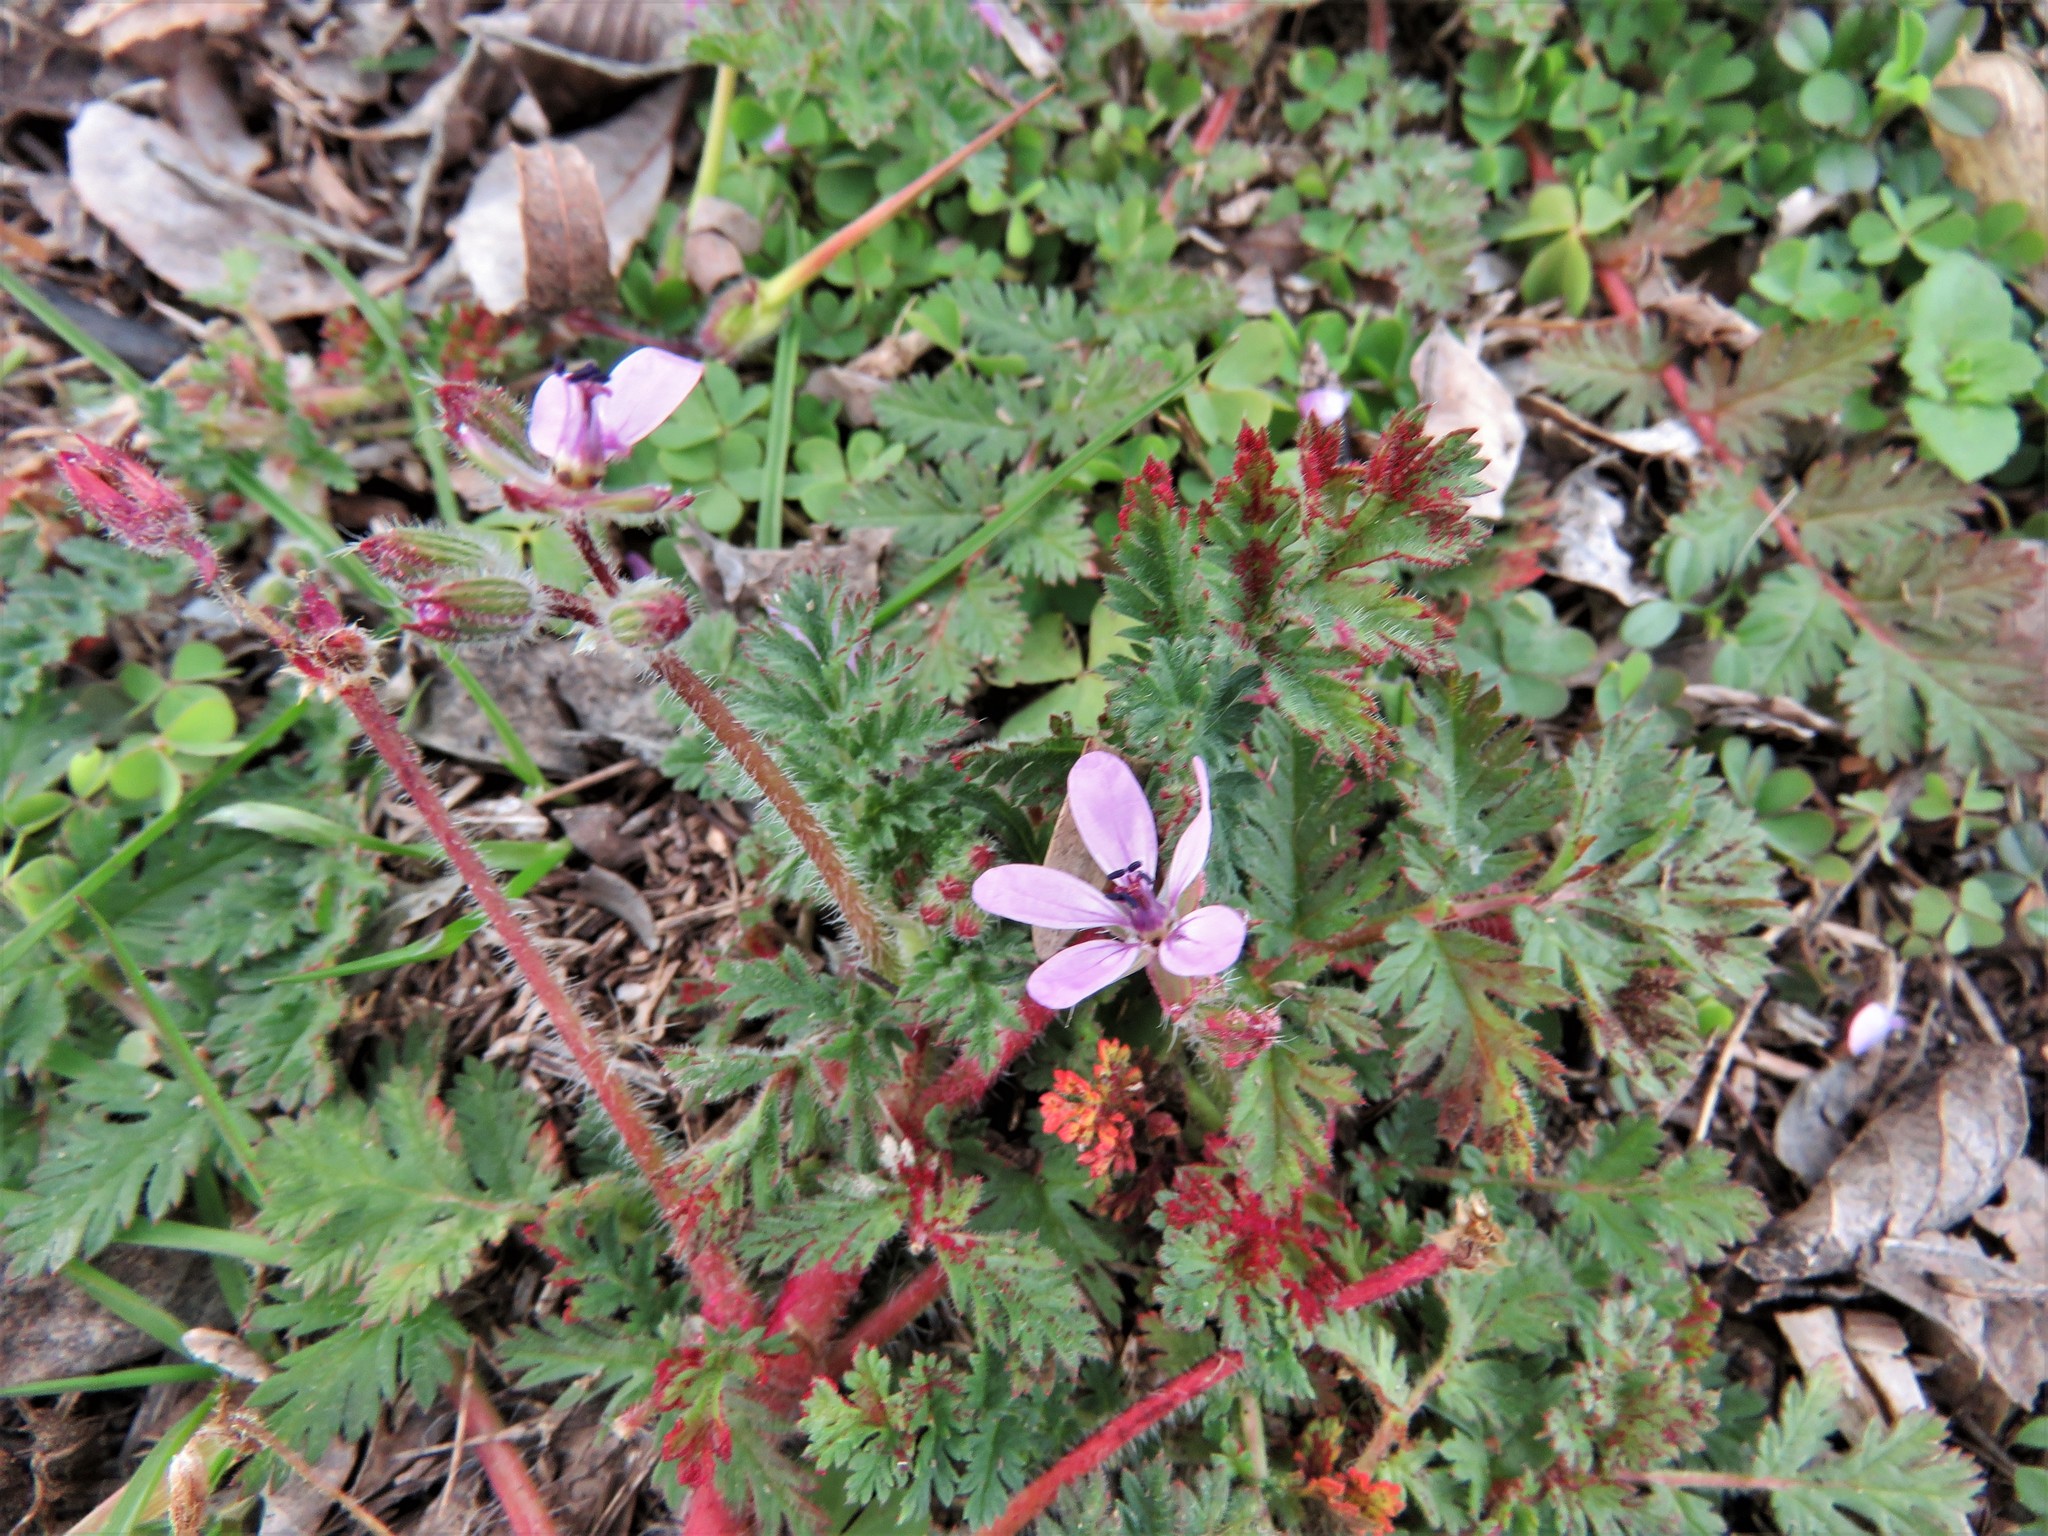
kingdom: Plantae
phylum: Tracheophyta
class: Magnoliopsida
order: Geraniales
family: Geraniaceae
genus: Erodium
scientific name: Erodium cicutarium
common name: Common stork's-bill
